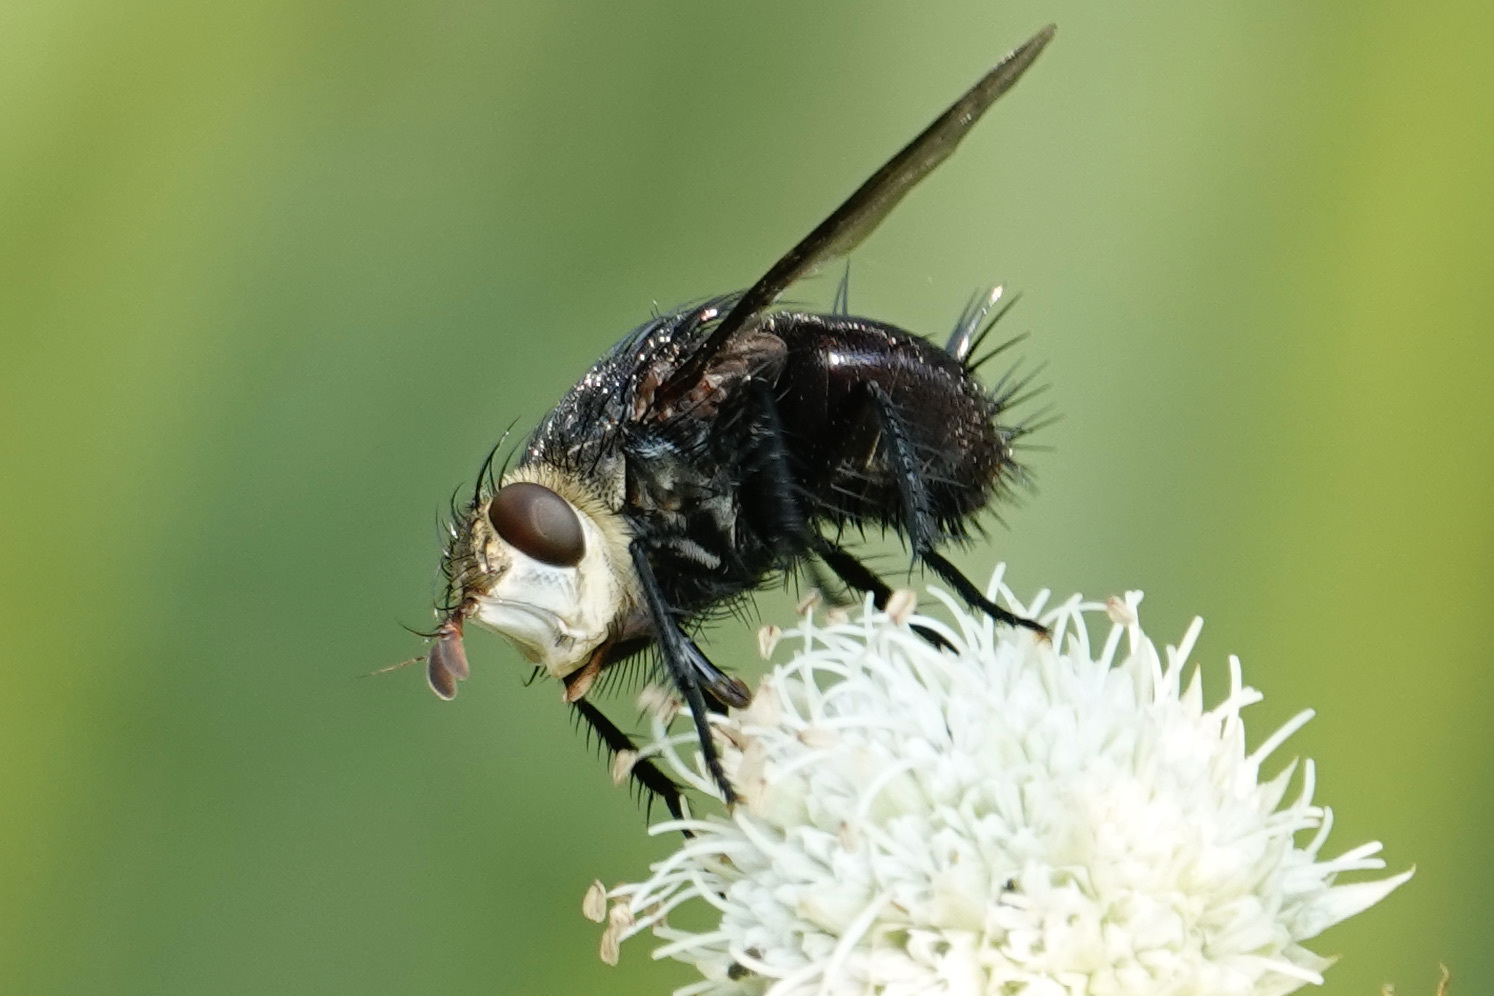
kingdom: Animalia
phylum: Arthropoda
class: Insecta
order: Diptera
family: Tachinidae
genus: Juriniopsis
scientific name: Juriniopsis adusta
